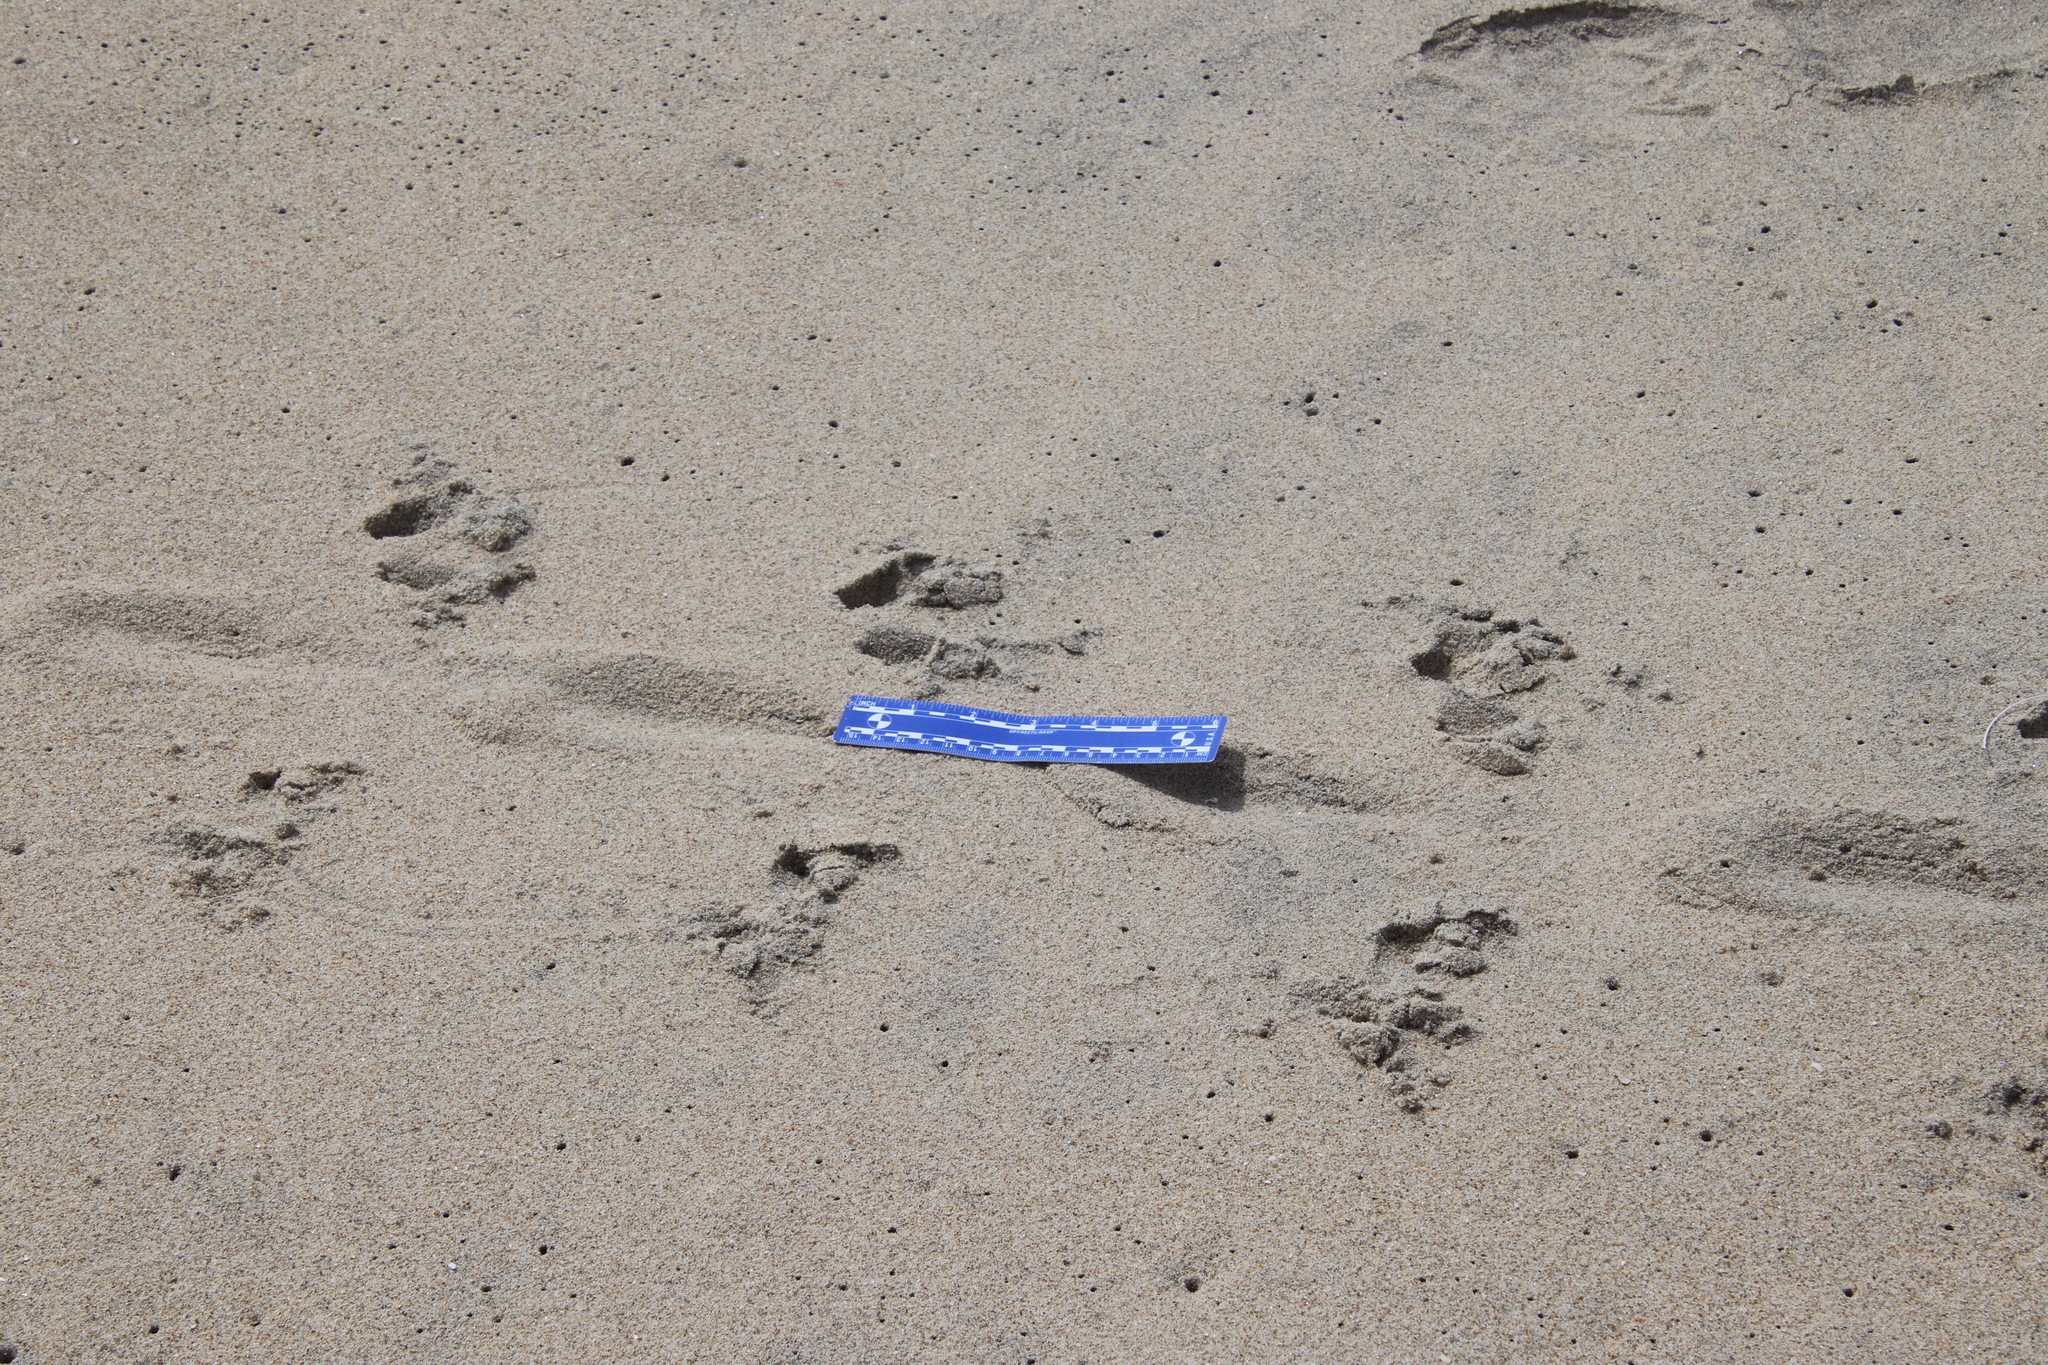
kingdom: Animalia
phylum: Chordata
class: Aves
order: Gaviiformes
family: Gaviidae
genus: Gavia
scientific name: Gavia immer
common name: Common loon
